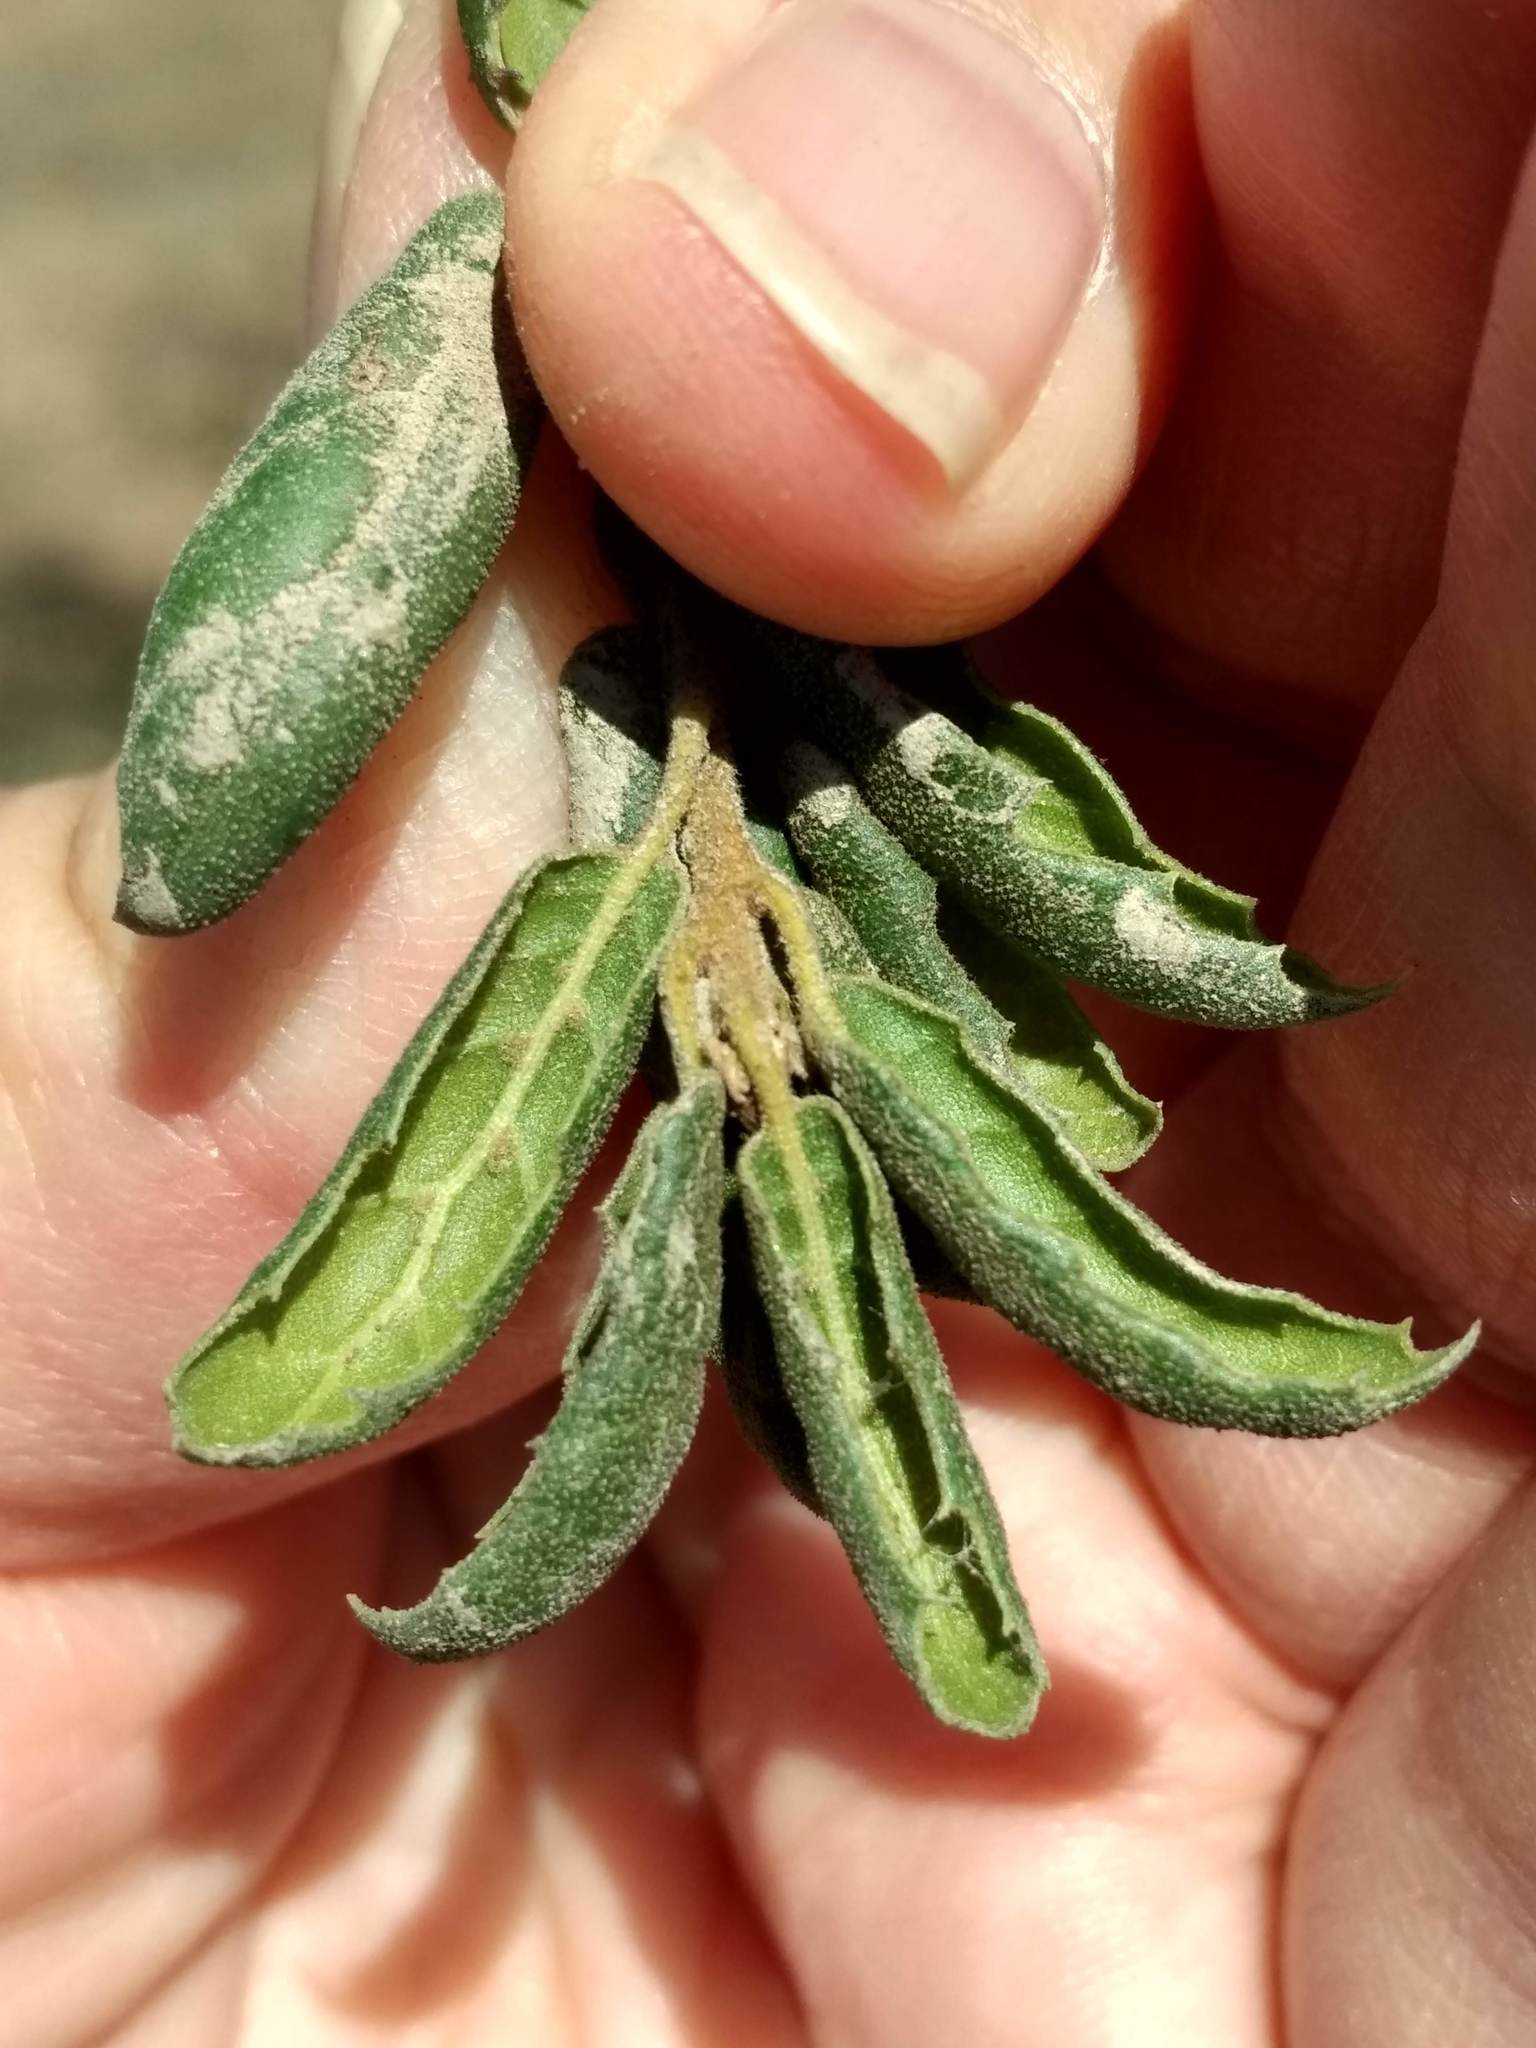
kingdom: Plantae
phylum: Tracheophyta
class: Magnoliopsida
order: Fagales
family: Fagaceae
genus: Quercus
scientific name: Quercus agrifolia
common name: California live oak
